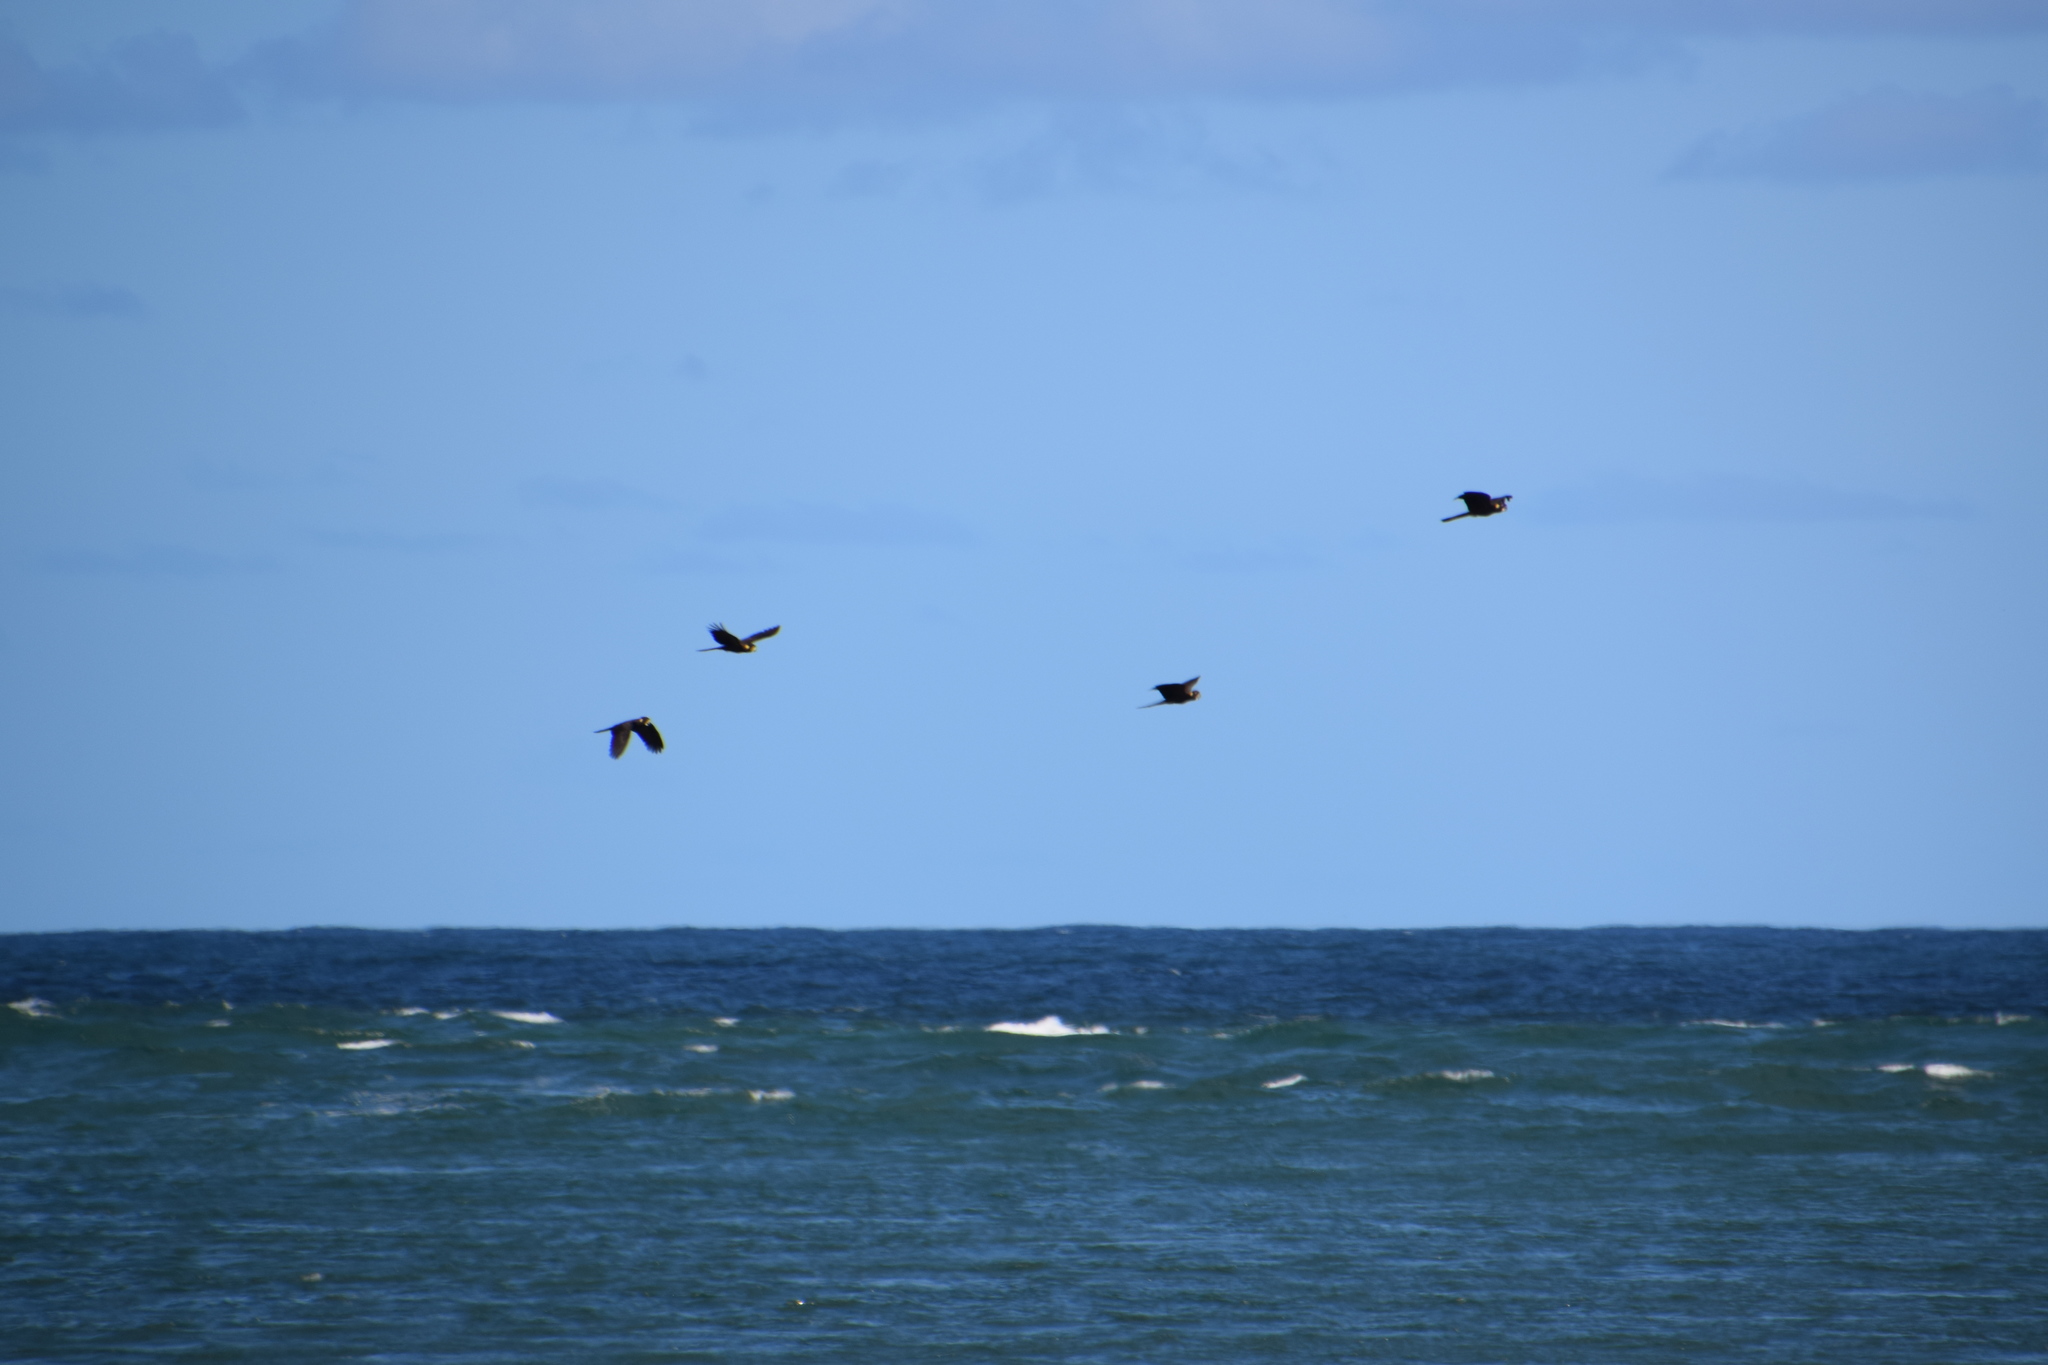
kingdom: Animalia
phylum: Chordata
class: Aves
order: Psittaciformes
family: Cacatuidae
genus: Zanda
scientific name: Zanda funerea
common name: Yellow-tailed black-cockatoo
